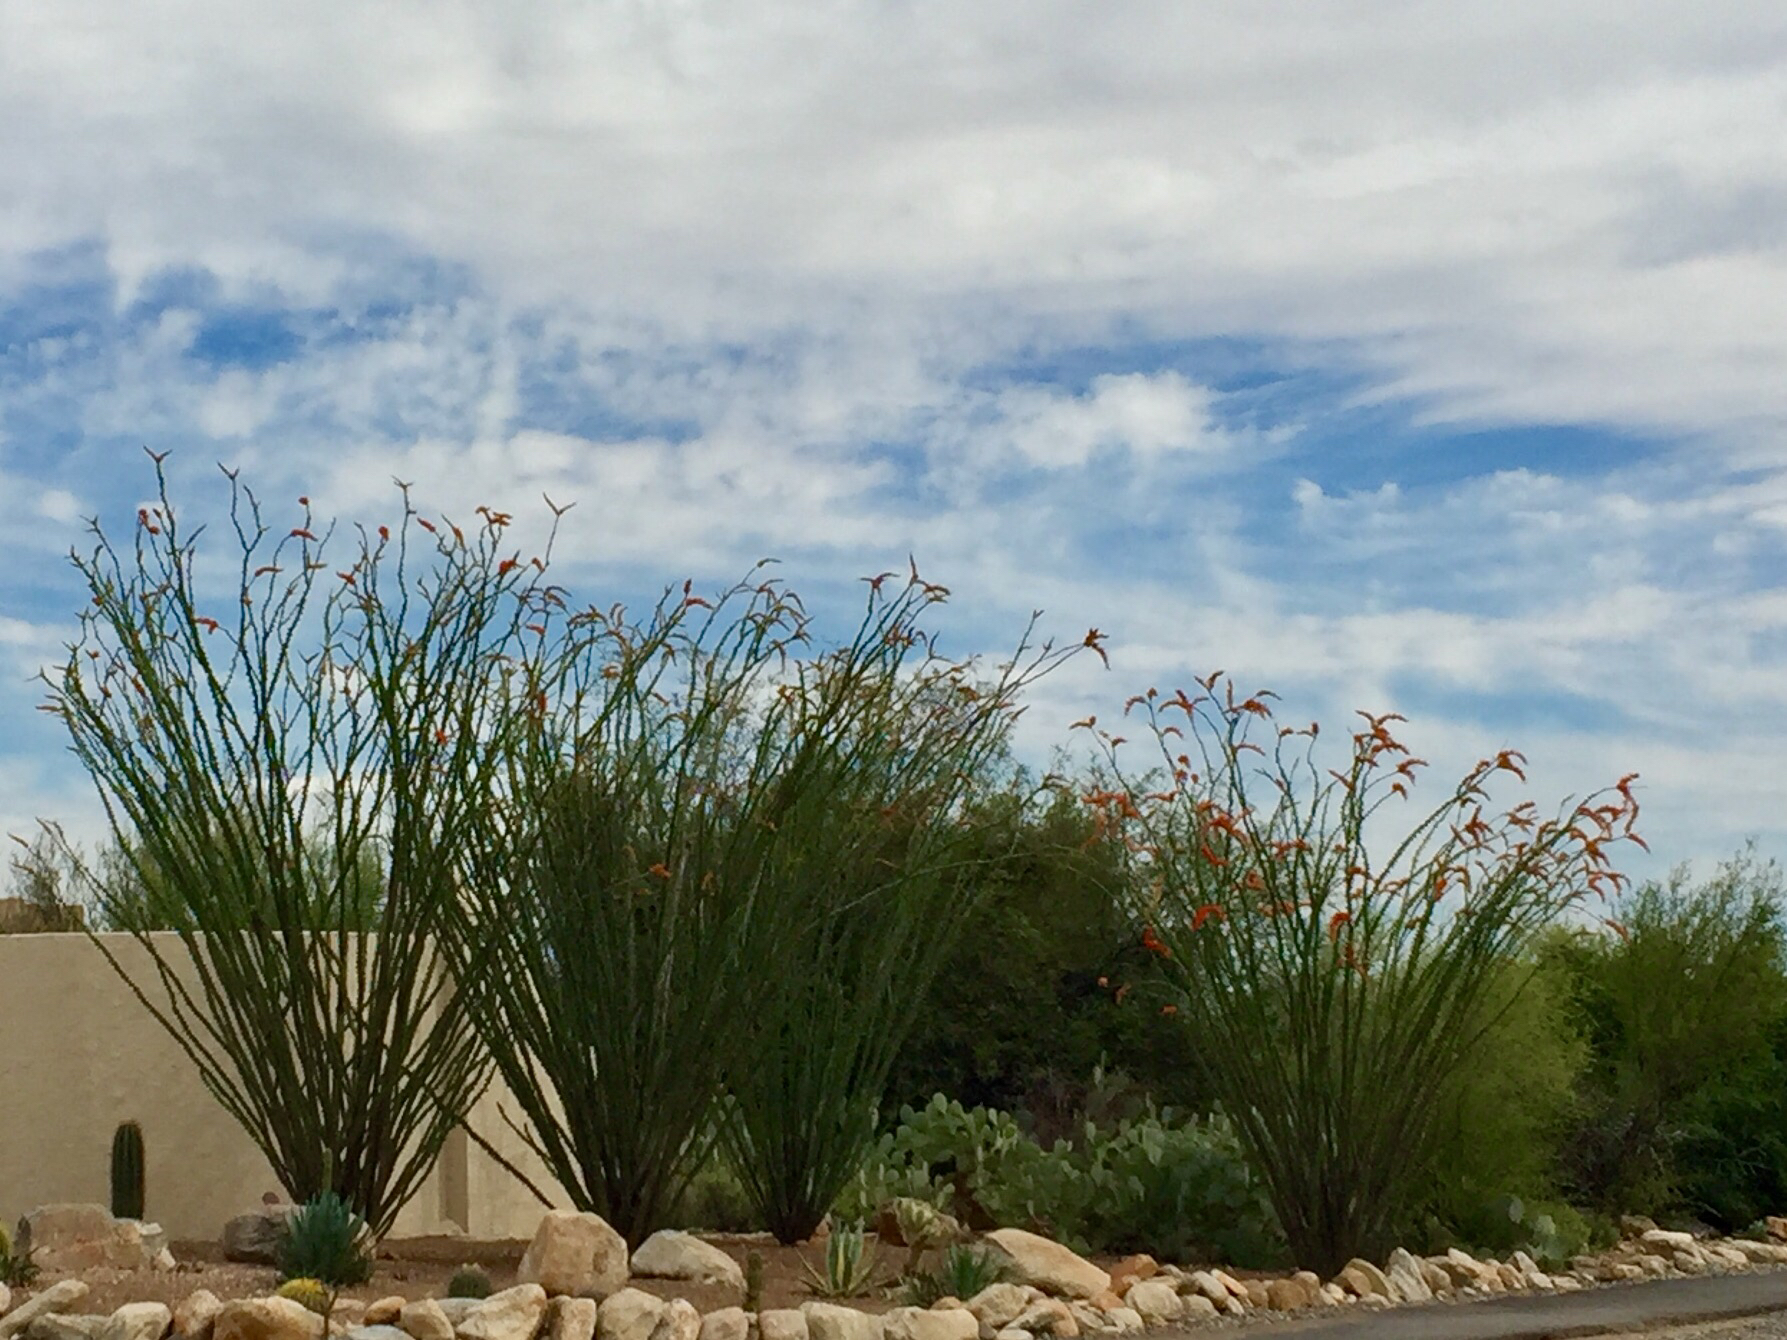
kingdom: Plantae
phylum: Tracheophyta
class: Magnoliopsida
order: Ericales
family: Fouquieriaceae
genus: Fouquieria
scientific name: Fouquieria splendens
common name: Vine-cactus
